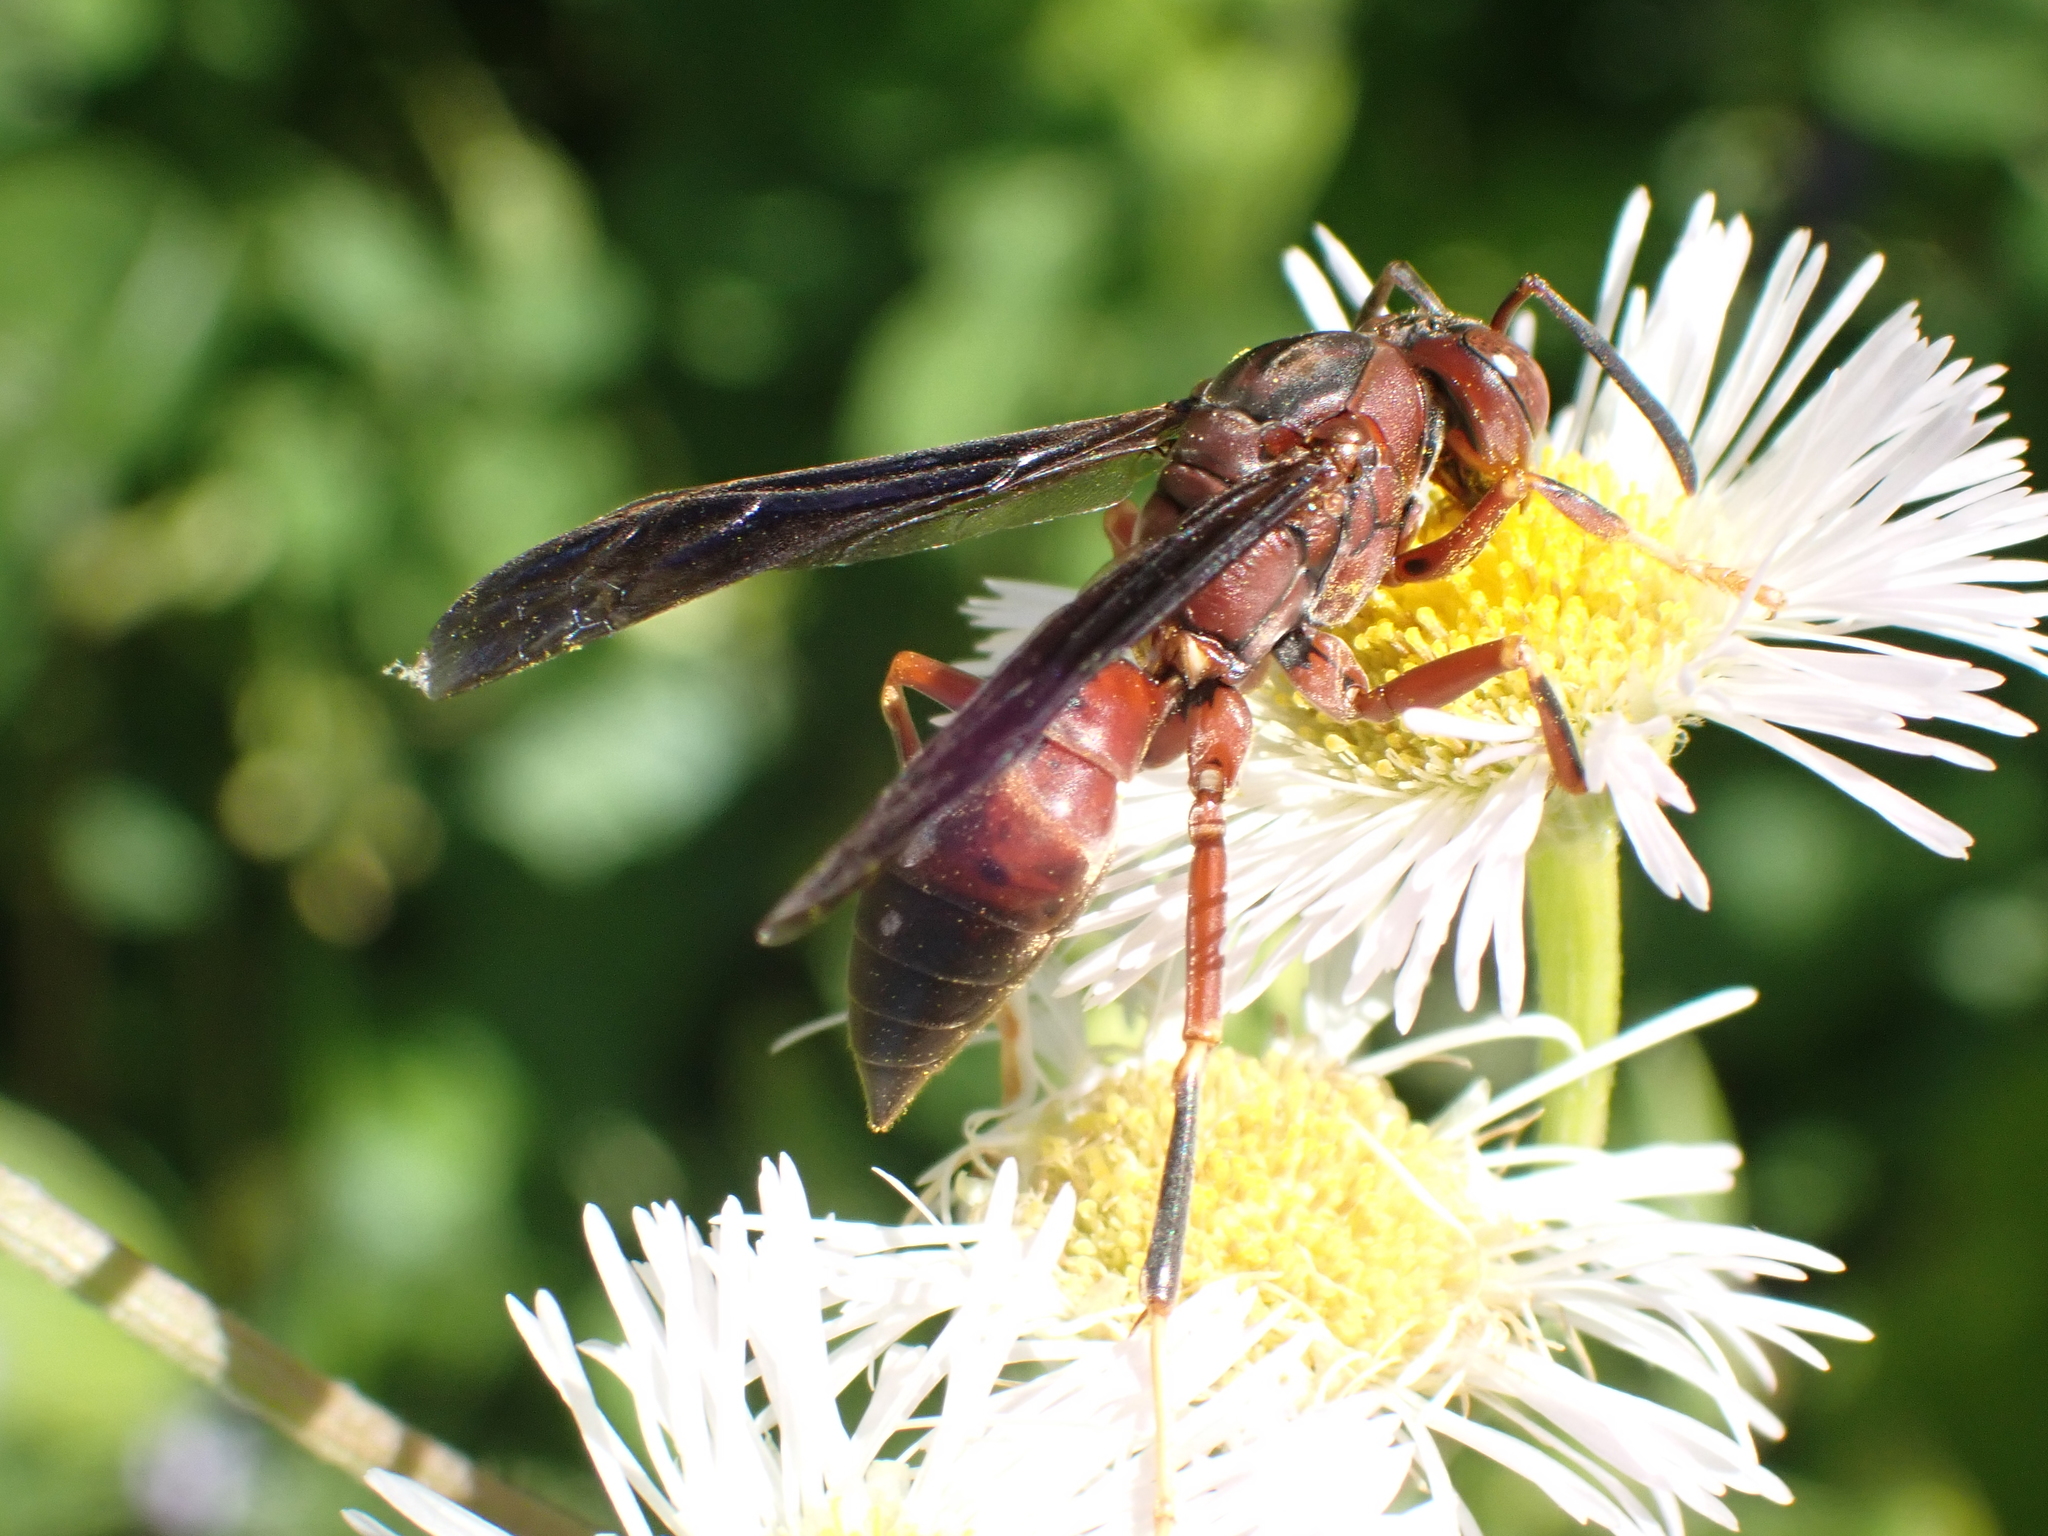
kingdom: Animalia
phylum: Arthropoda
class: Insecta
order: Hymenoptera
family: Eumenidae
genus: Polistes
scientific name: Polistes metricus
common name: Metric paper wasp
